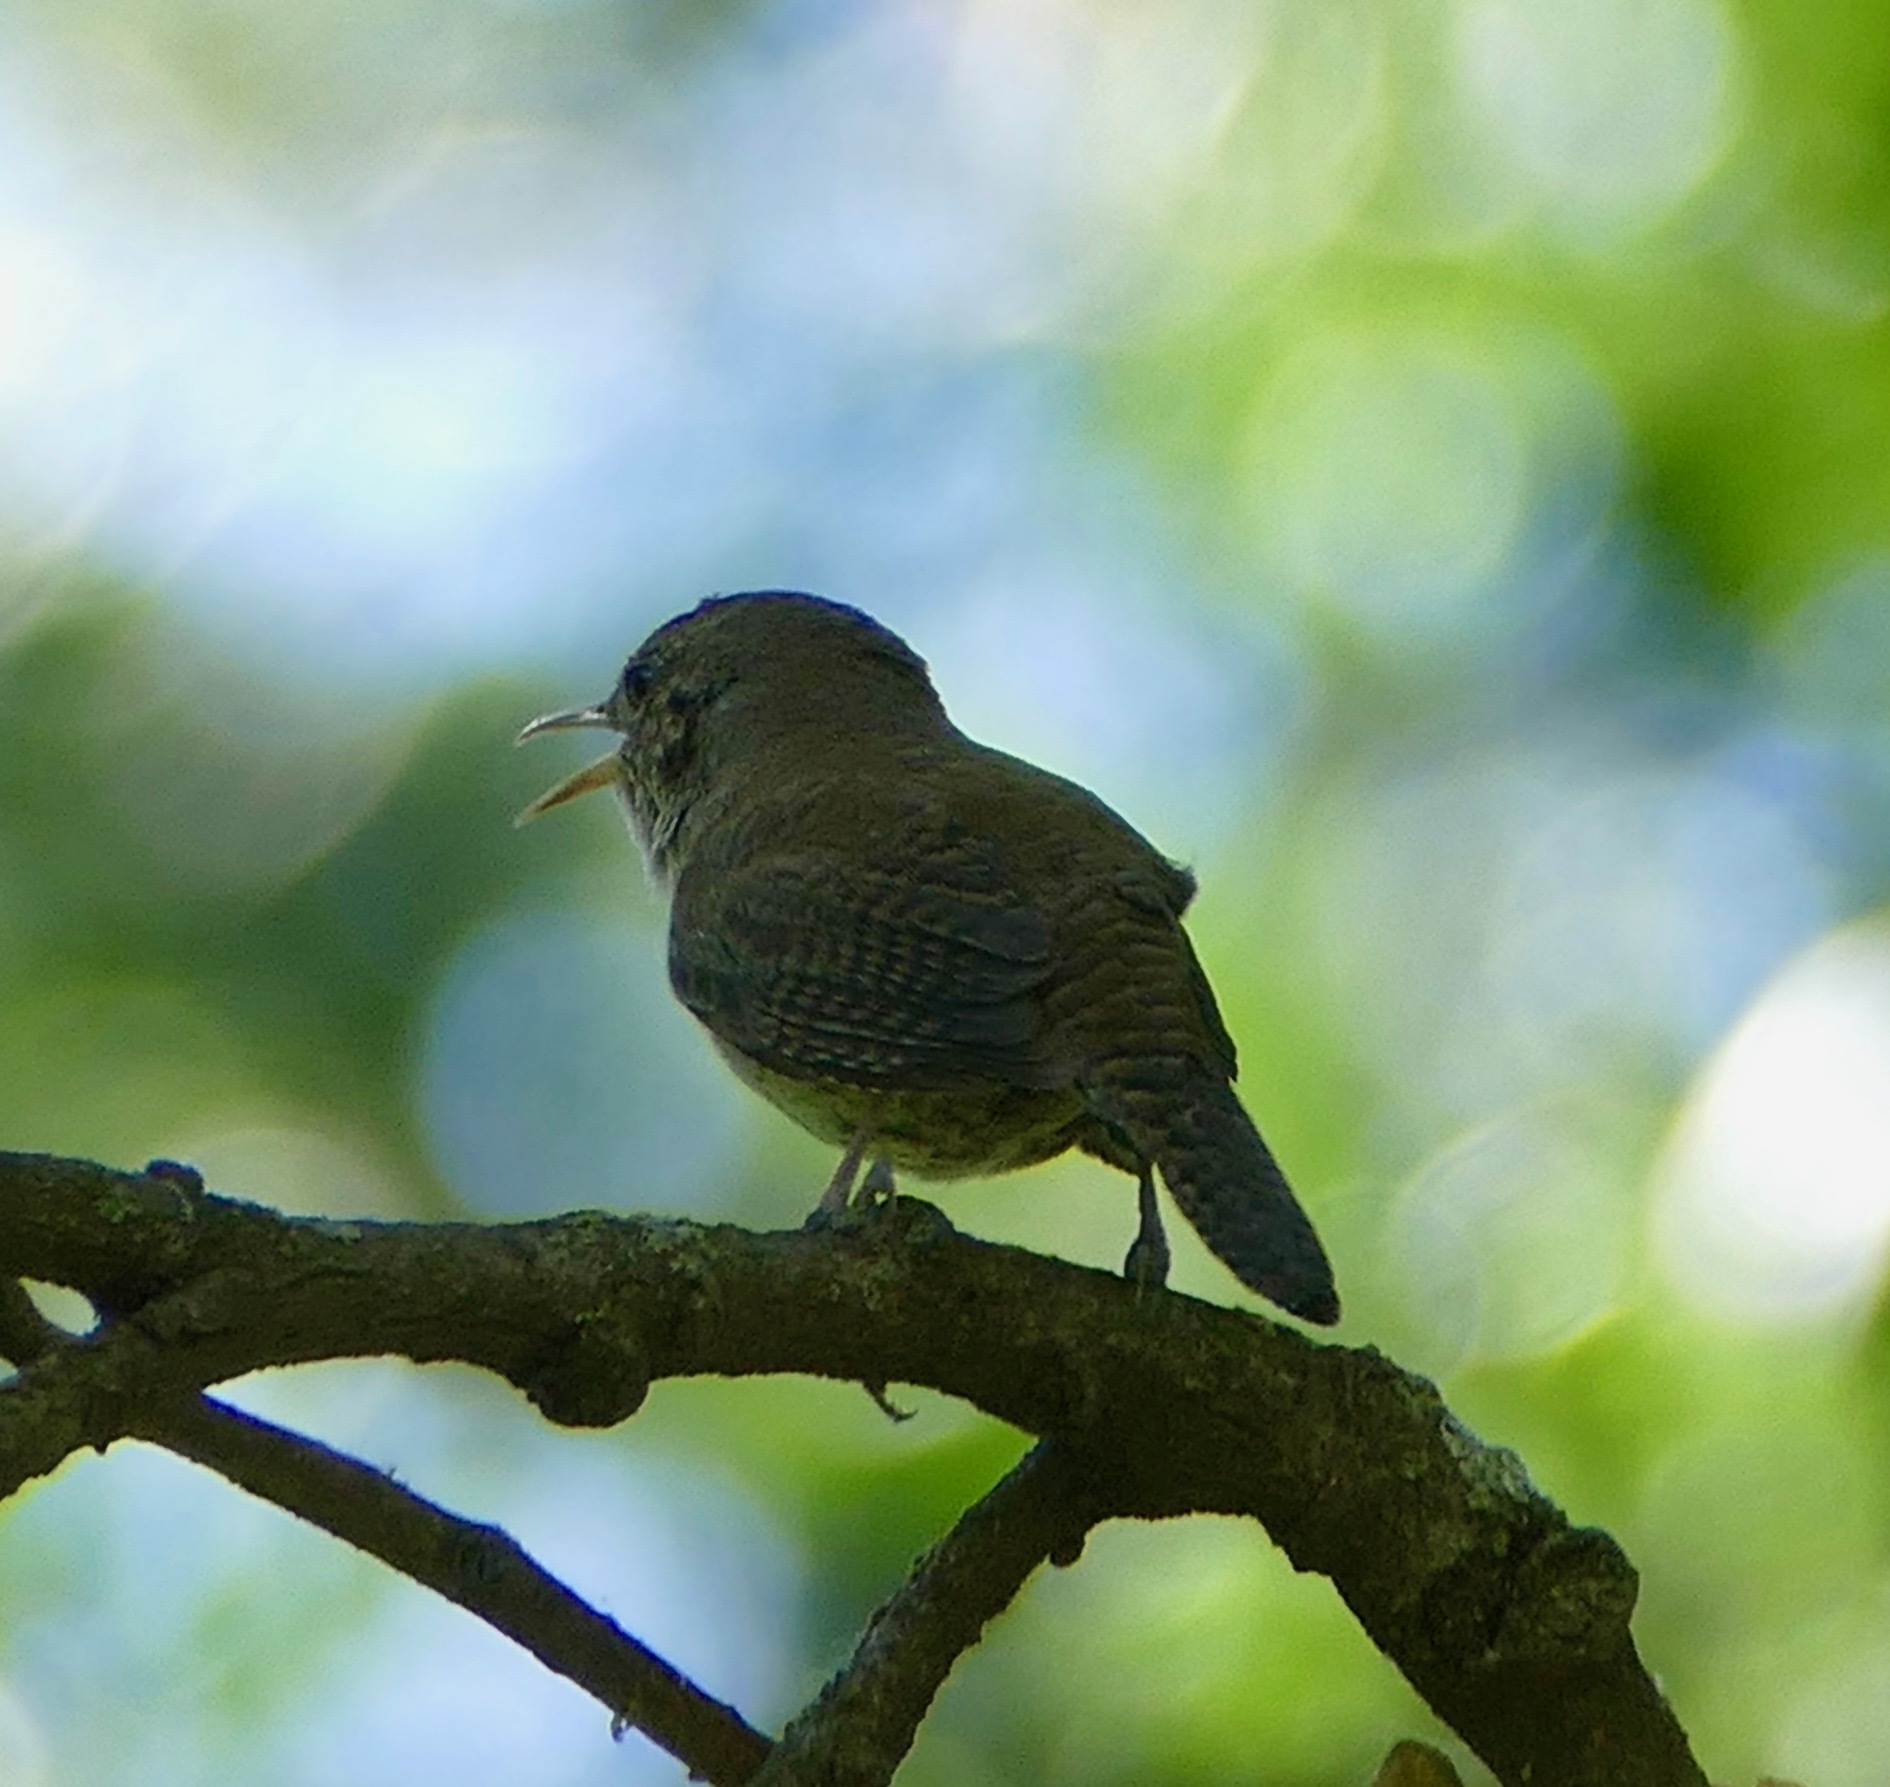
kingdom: Animalia
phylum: Chordata
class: Aves
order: Passeriformes
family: Troglodytidae
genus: Troglodytes
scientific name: Troglodytes aedon
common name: House wren
